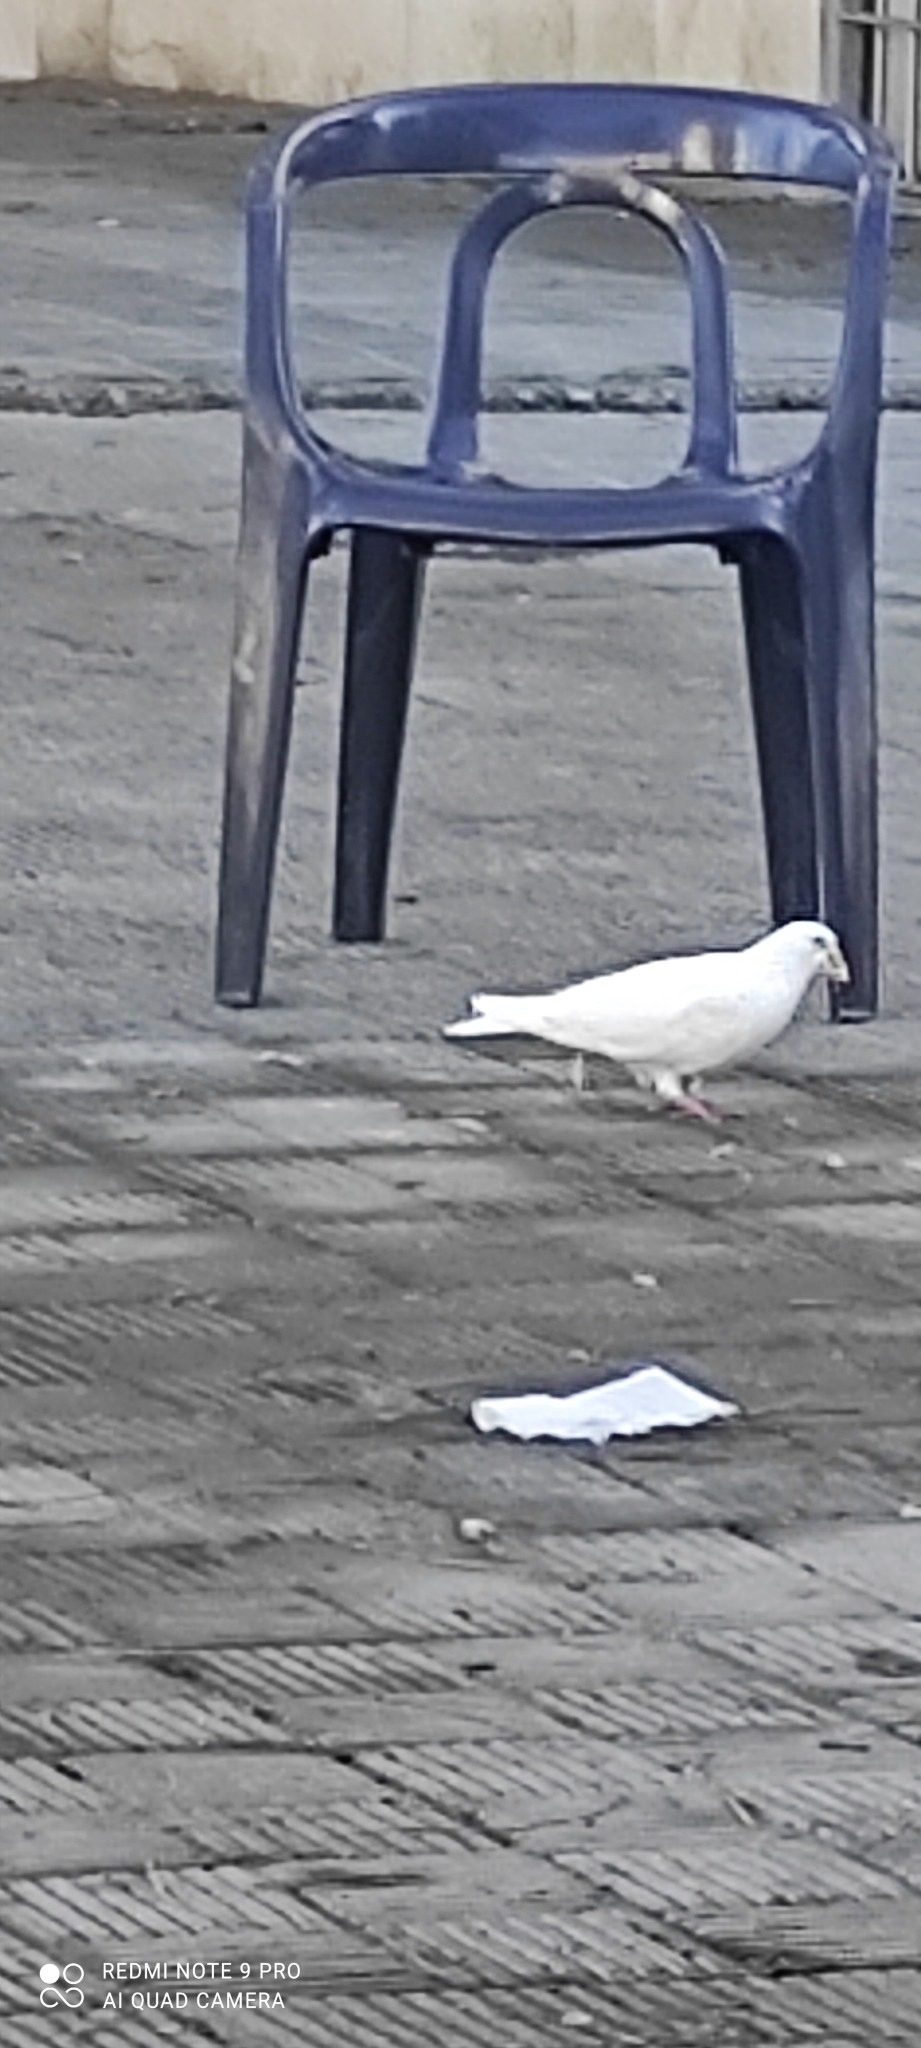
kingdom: Animalia
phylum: Chordata
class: Aves
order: Columbiformes
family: Columbidae
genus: Columba
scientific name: Columba livia
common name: Rock pigeon
